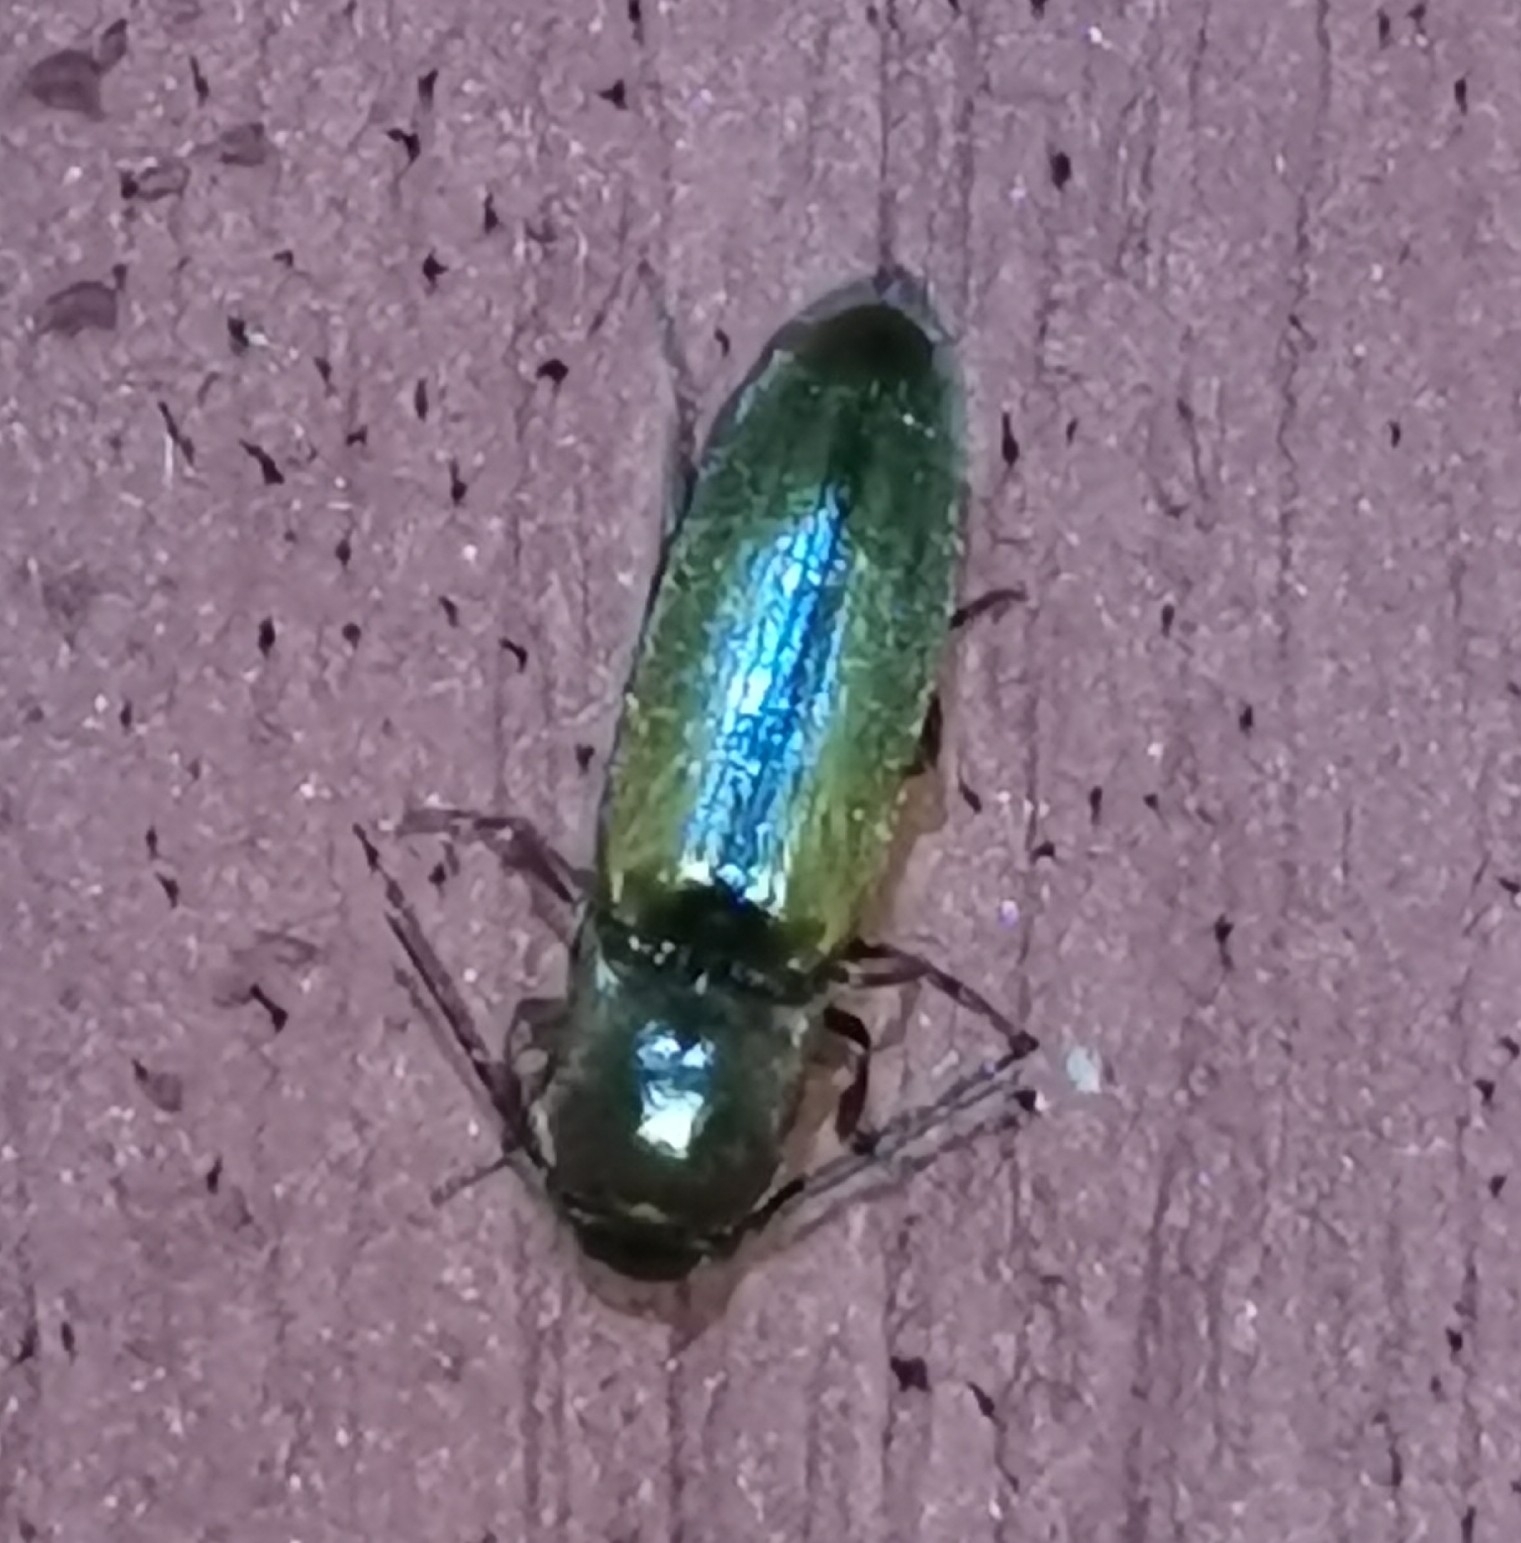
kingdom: Animalia
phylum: Arthropoda
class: Insecta
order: Coleoptera
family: Elateridae
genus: Dalopius
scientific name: Dalopius marginatus
